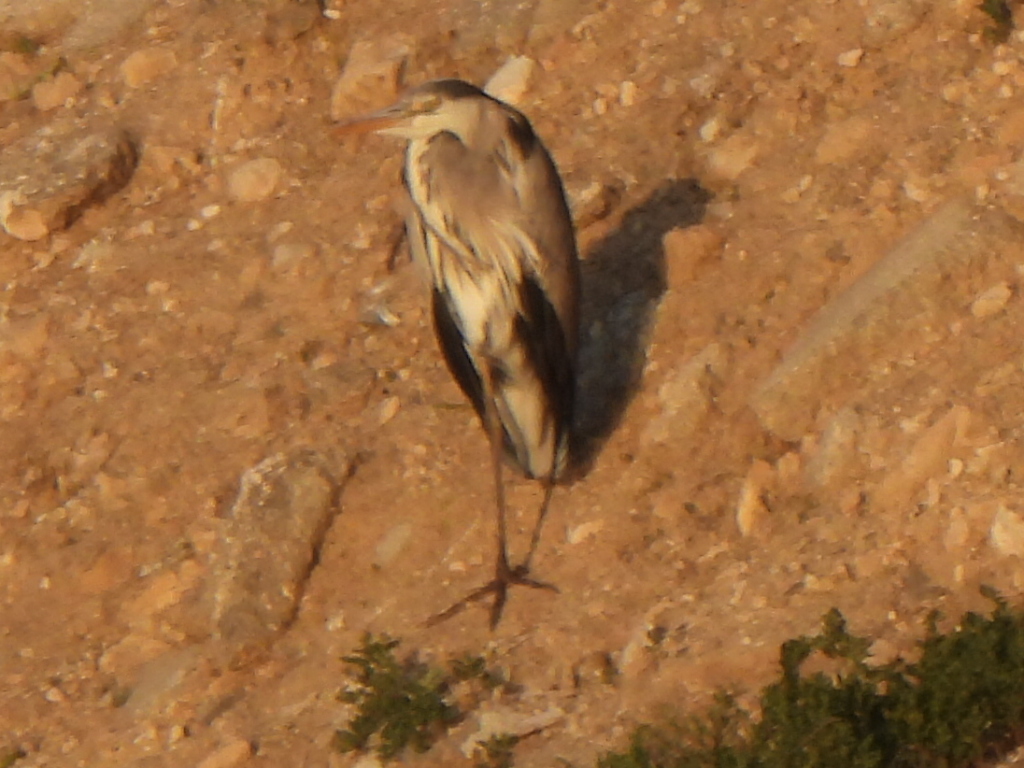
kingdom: Animalia
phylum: Chordata
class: Aves
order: Pelecaniformes
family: Ardeidae
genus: Ardea
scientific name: Ardea cinerea
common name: Grey heron
